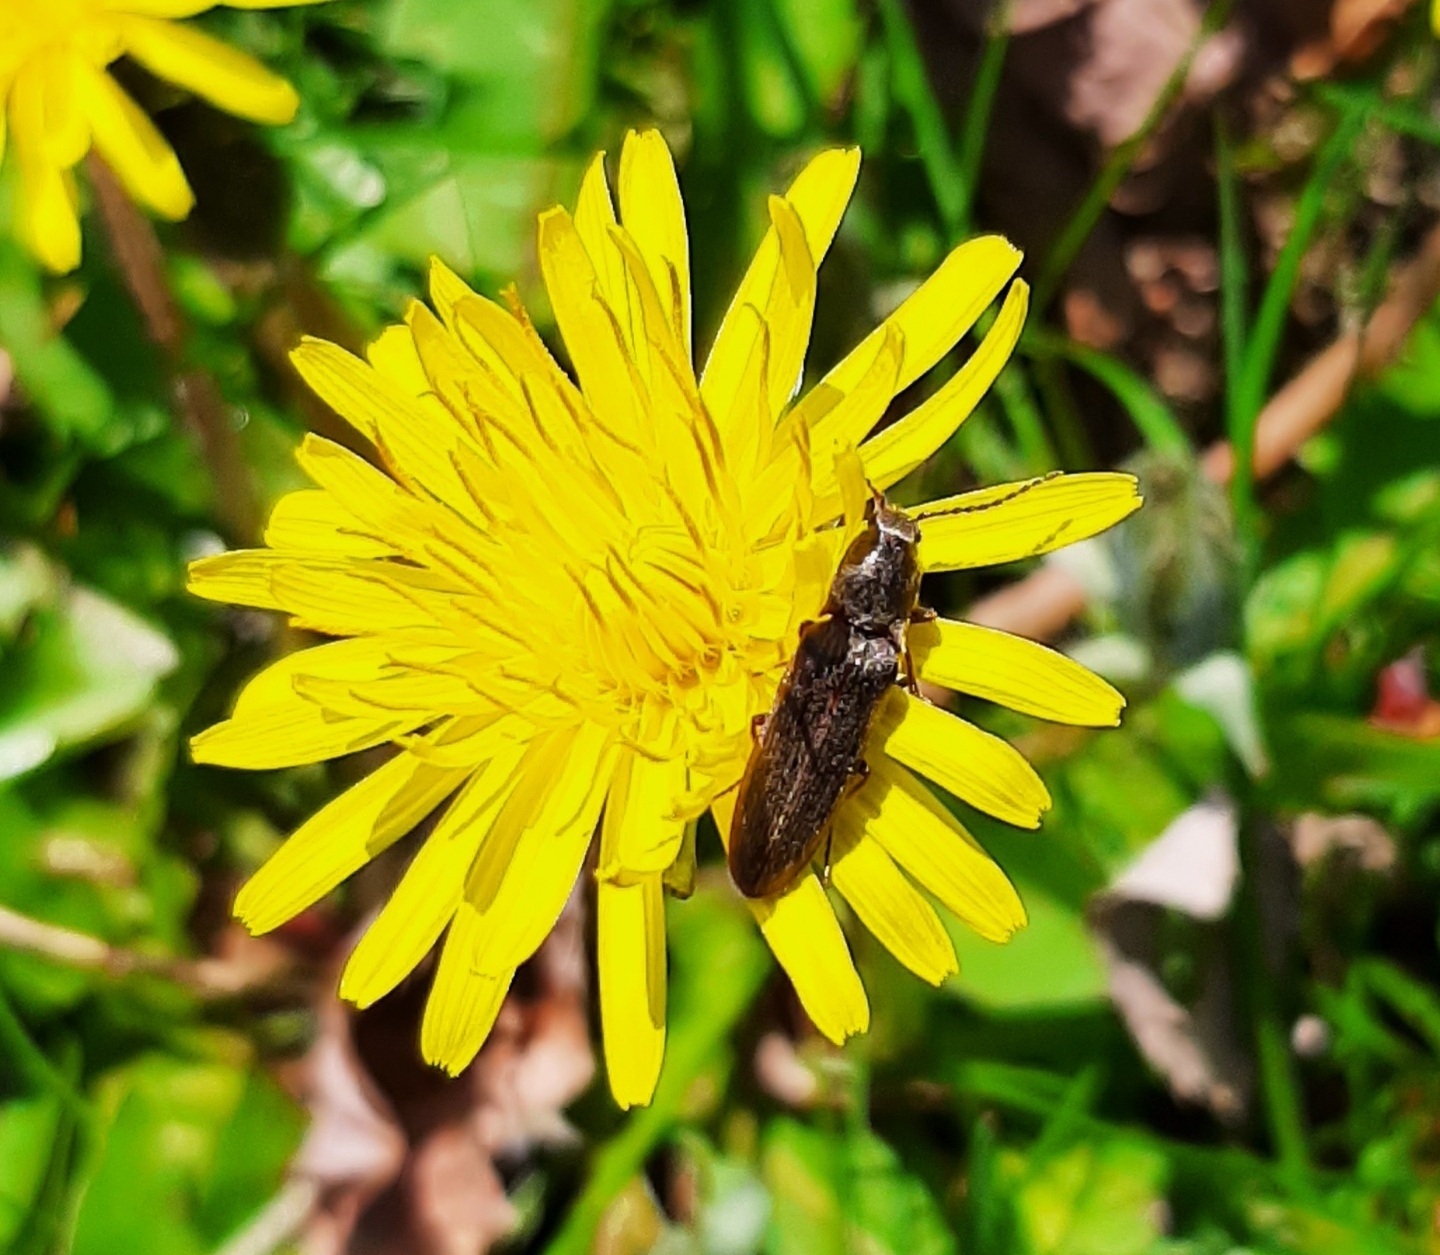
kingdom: Animalia
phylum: Arthropoda
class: Insecta
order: Coleoptera
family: Elateridae
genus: Sylvanelater
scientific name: Sylvanelater cylindriformis
